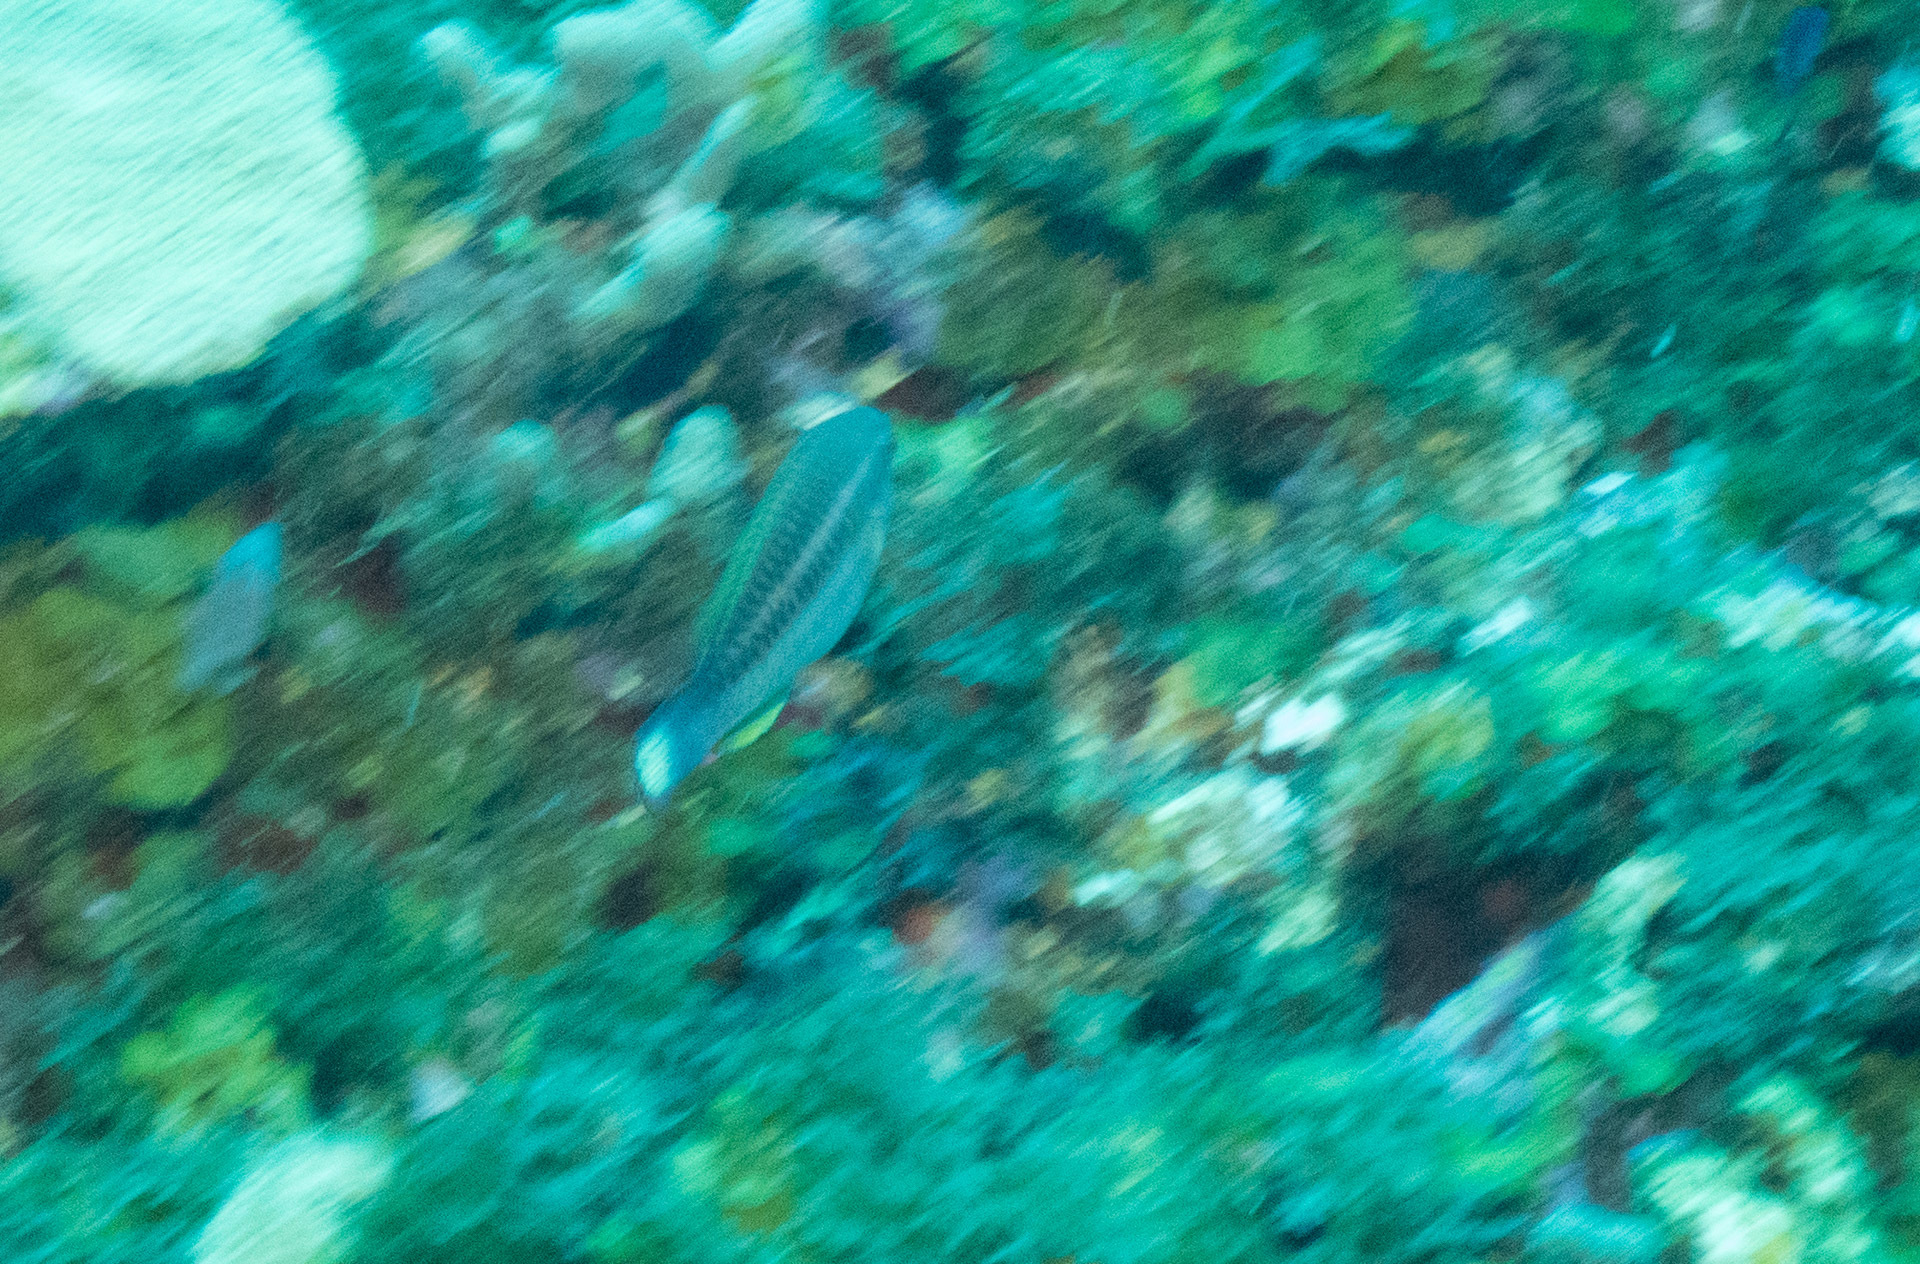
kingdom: Animalia
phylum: Chordata
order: Perciformes
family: Scaridae
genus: Scarus
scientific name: Scarus iseri
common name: Striped parrotfish
